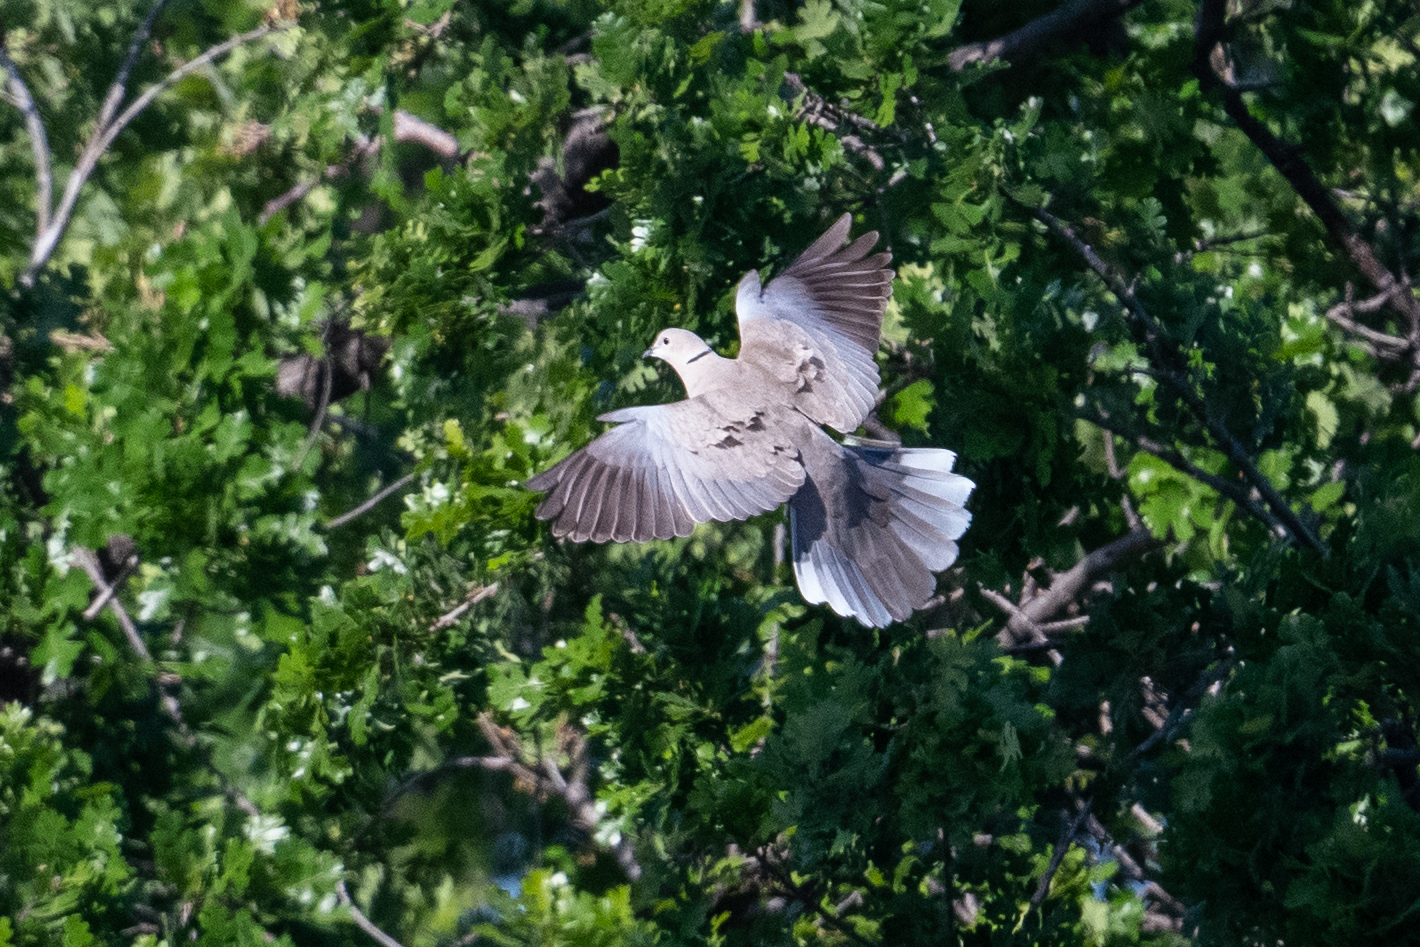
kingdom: Animalia
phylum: Chordata
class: Aves
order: Columbiformes
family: Columbidae
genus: Streptopelia
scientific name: Streptopelia decaocto
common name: Eurasian collared dove
